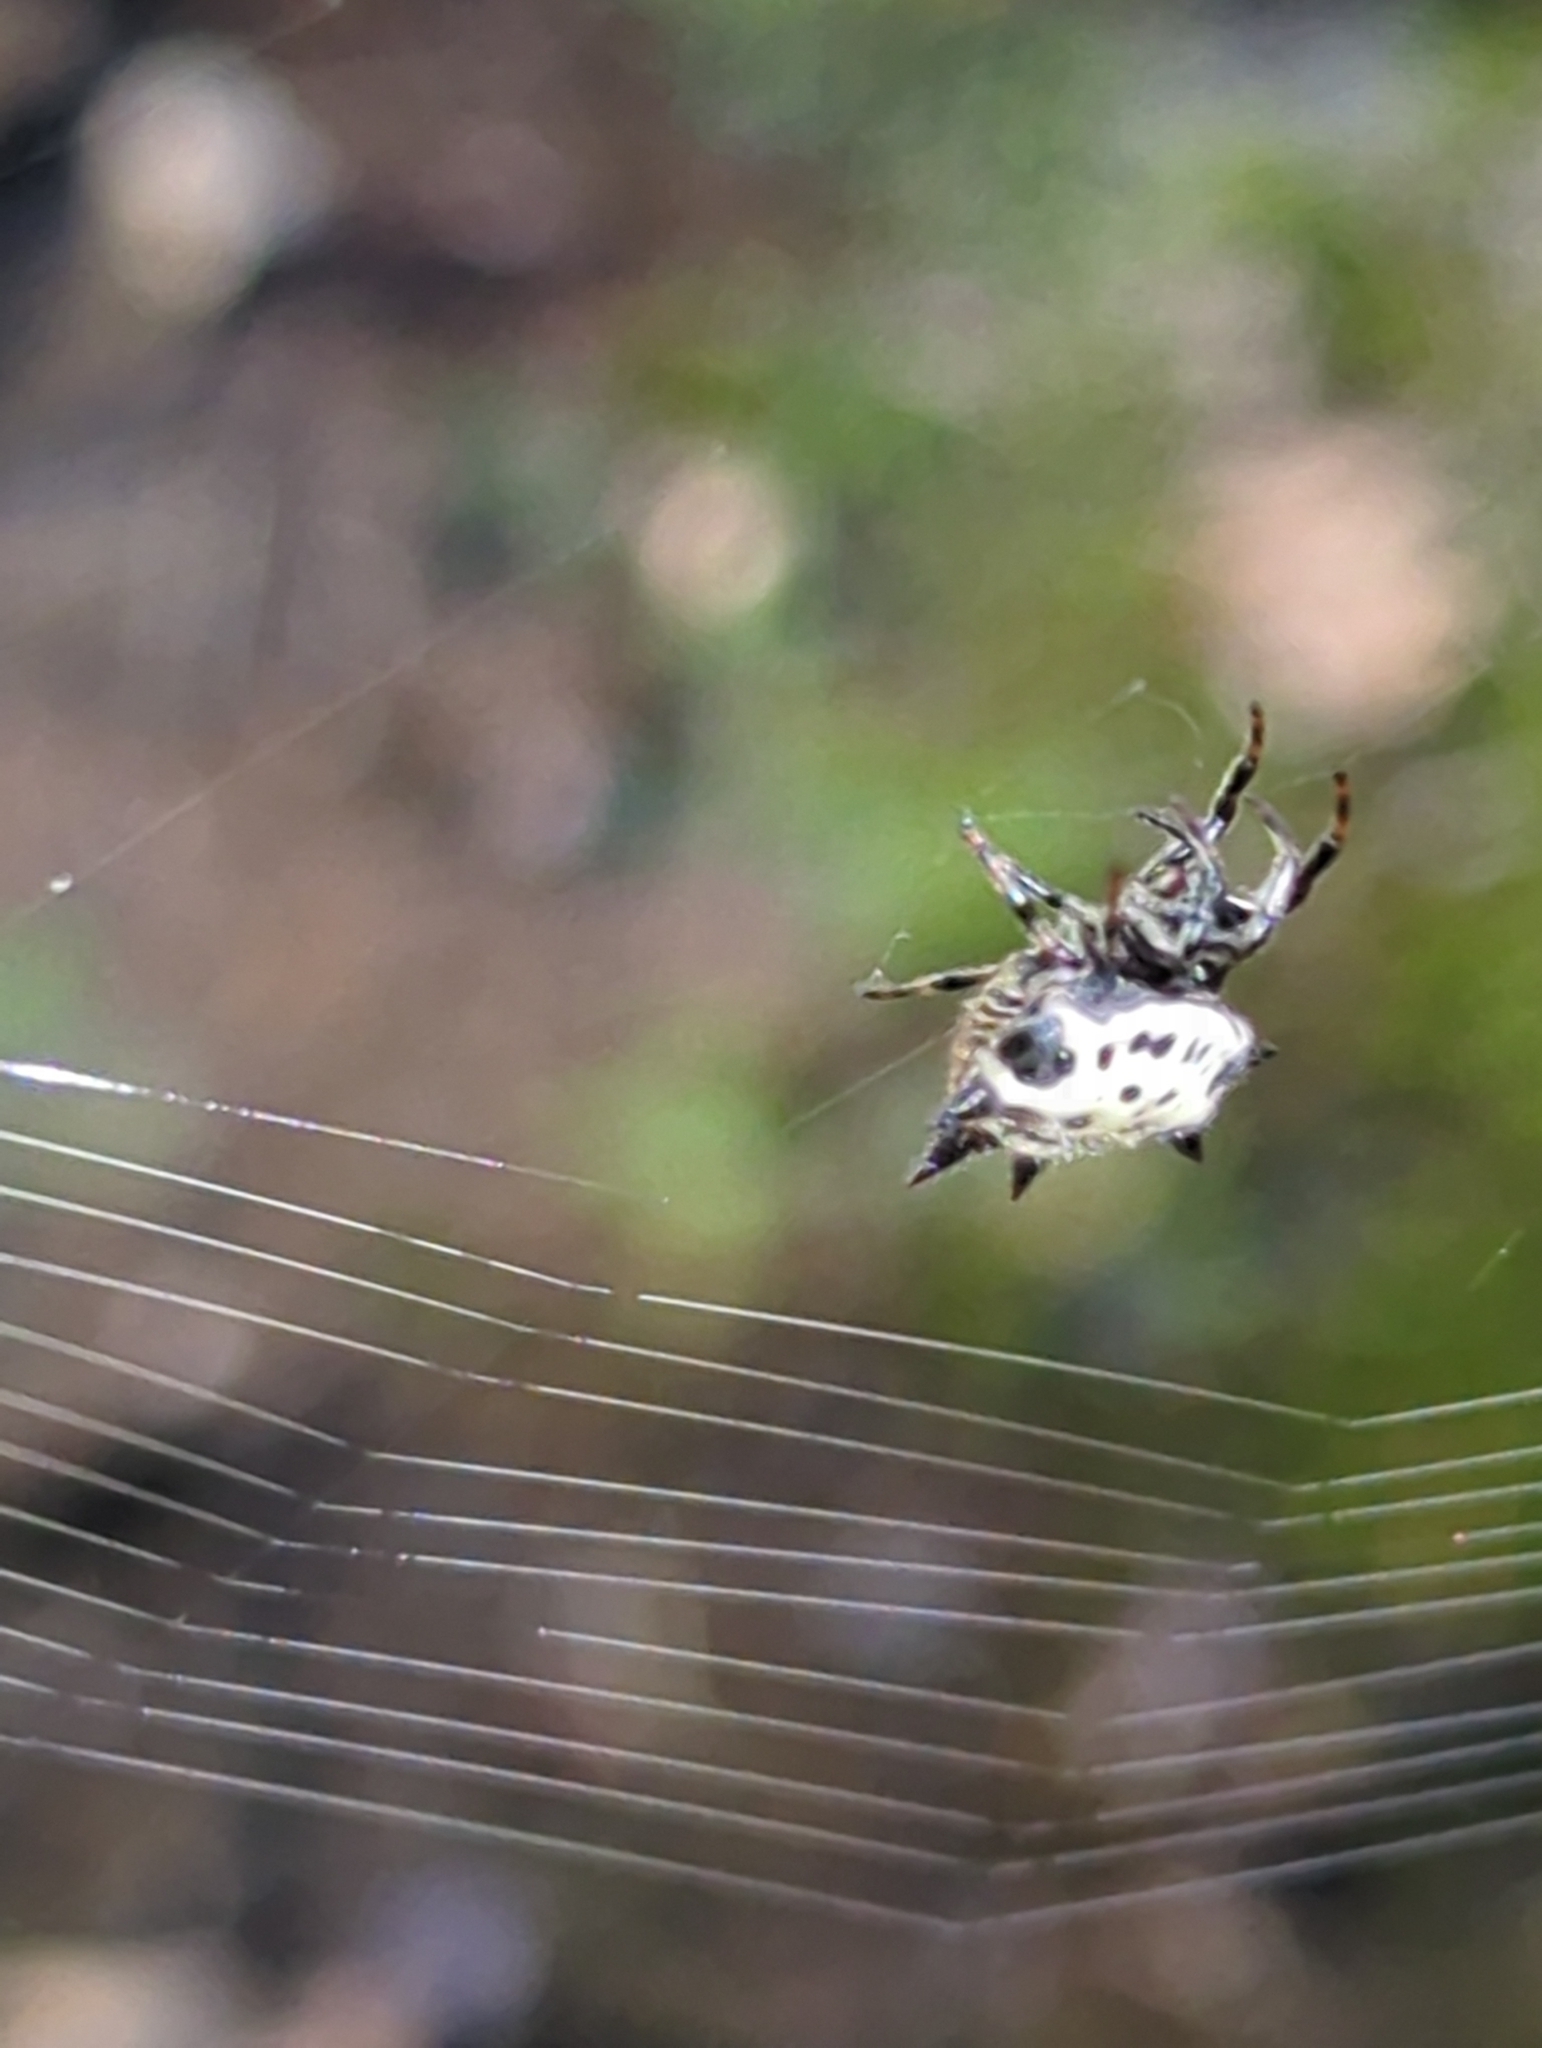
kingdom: Animalia
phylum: Arthropoda
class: Arachnida
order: Araneae
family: Araneidae
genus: Gasteracantha
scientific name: Gasteracantha cancriformis
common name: Orb weavers
